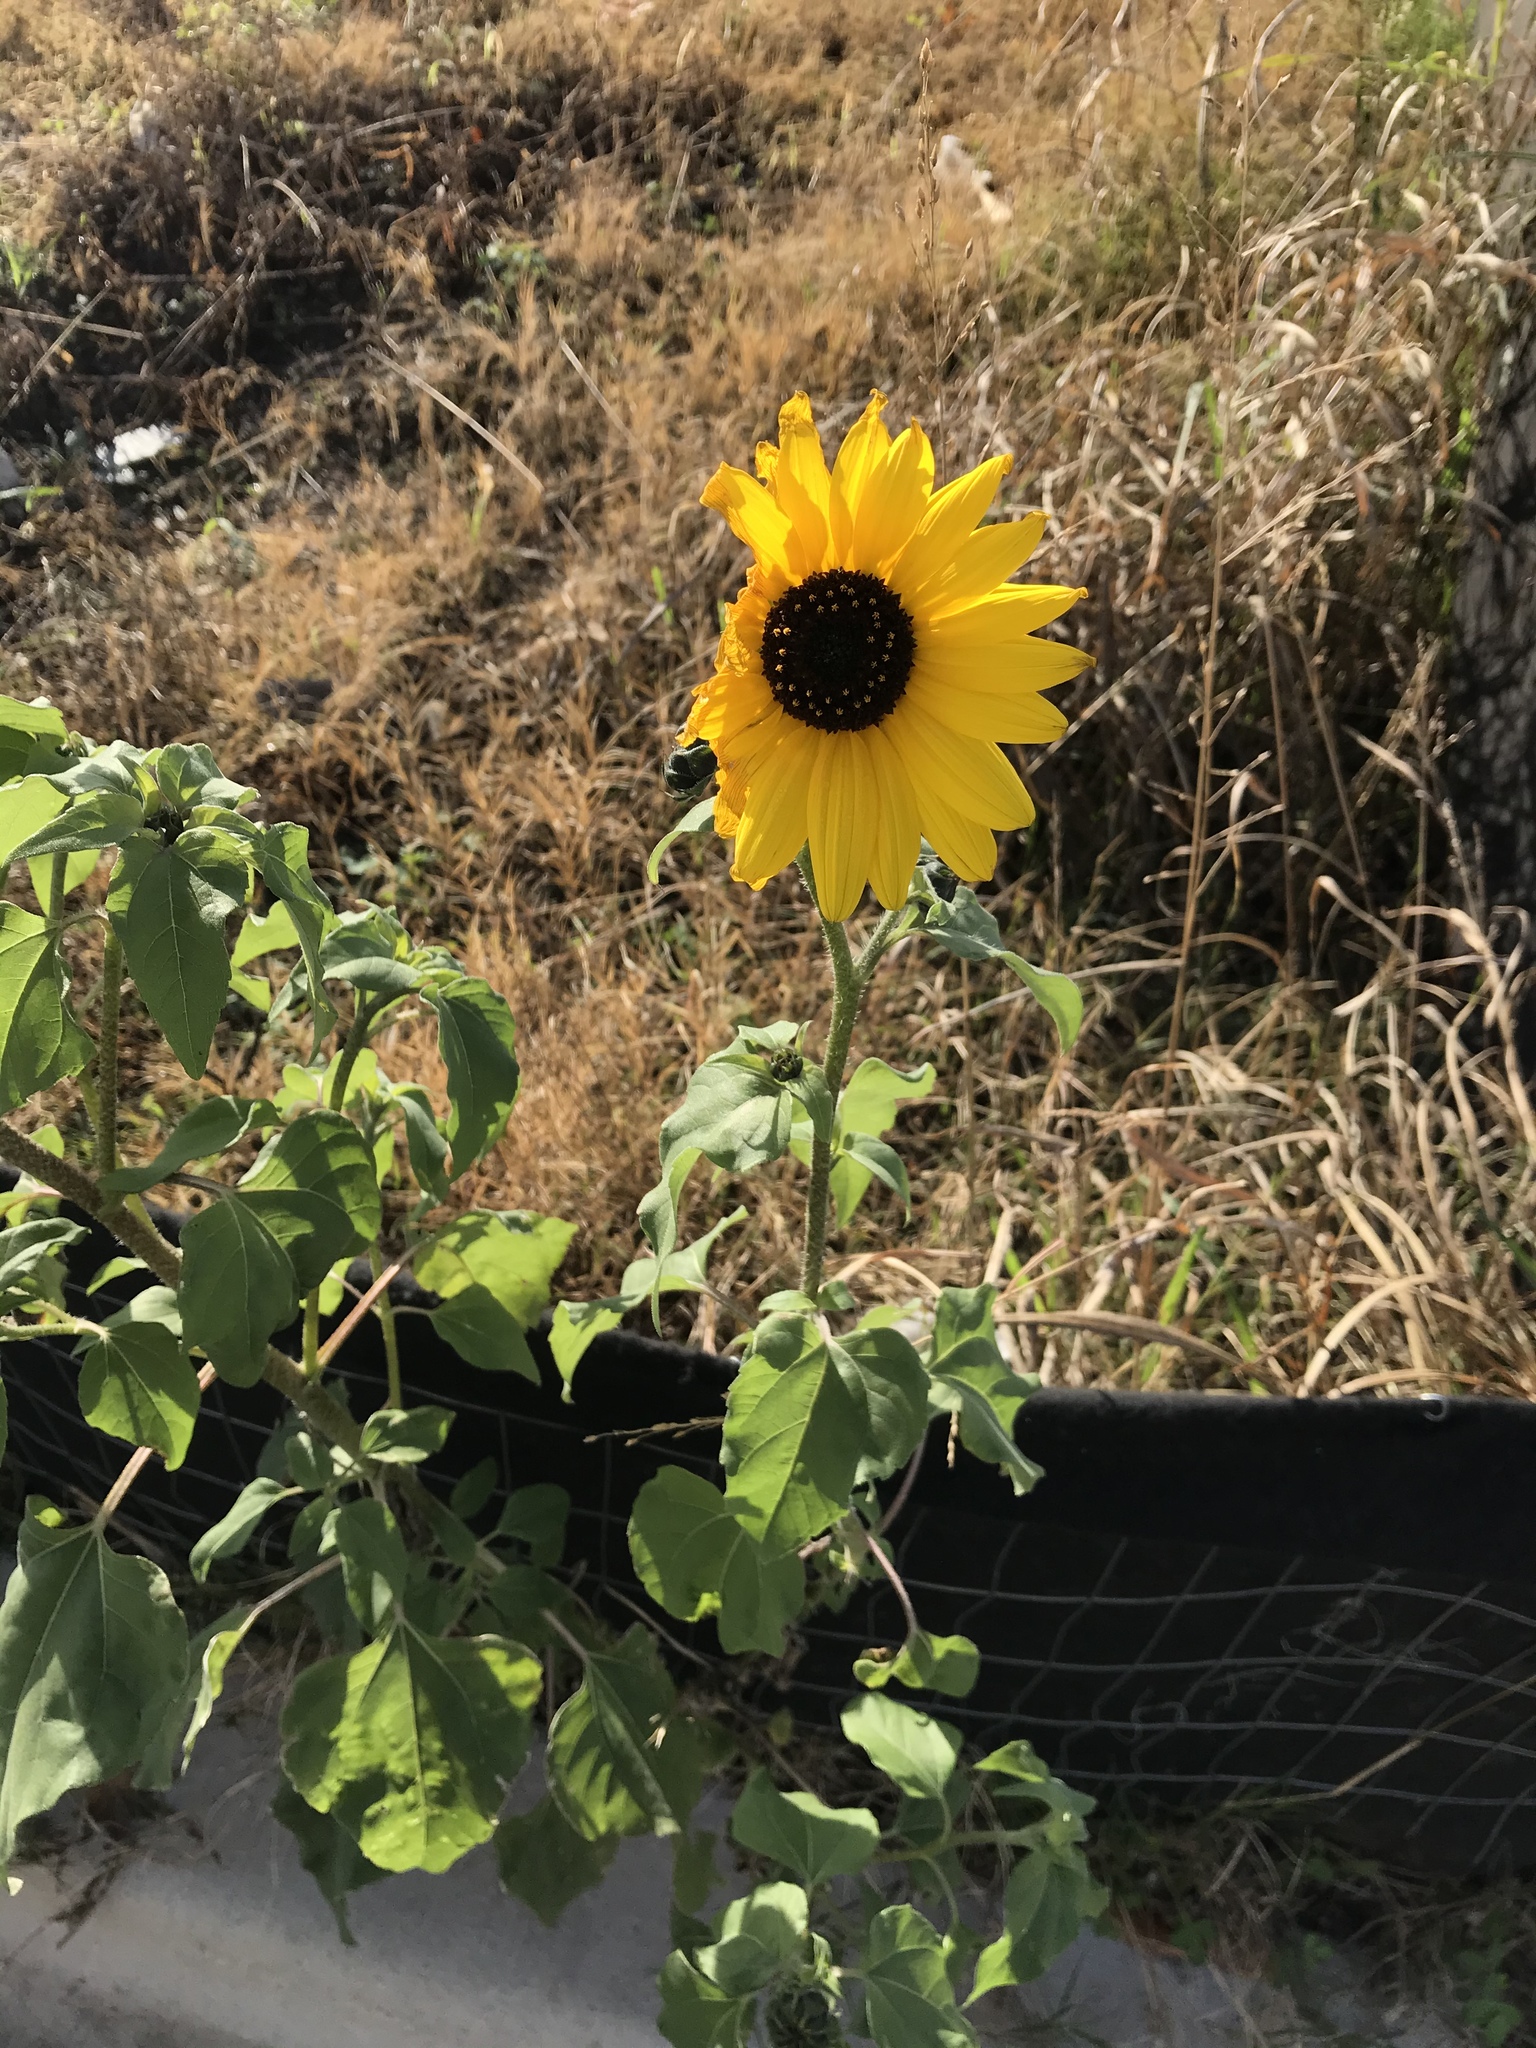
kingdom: Plantae
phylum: Tracheophyta
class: Magnoliopsida
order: Asterales
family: Asteraceae
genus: Helianthus
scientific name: Helianthus annuus
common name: Sunflower
